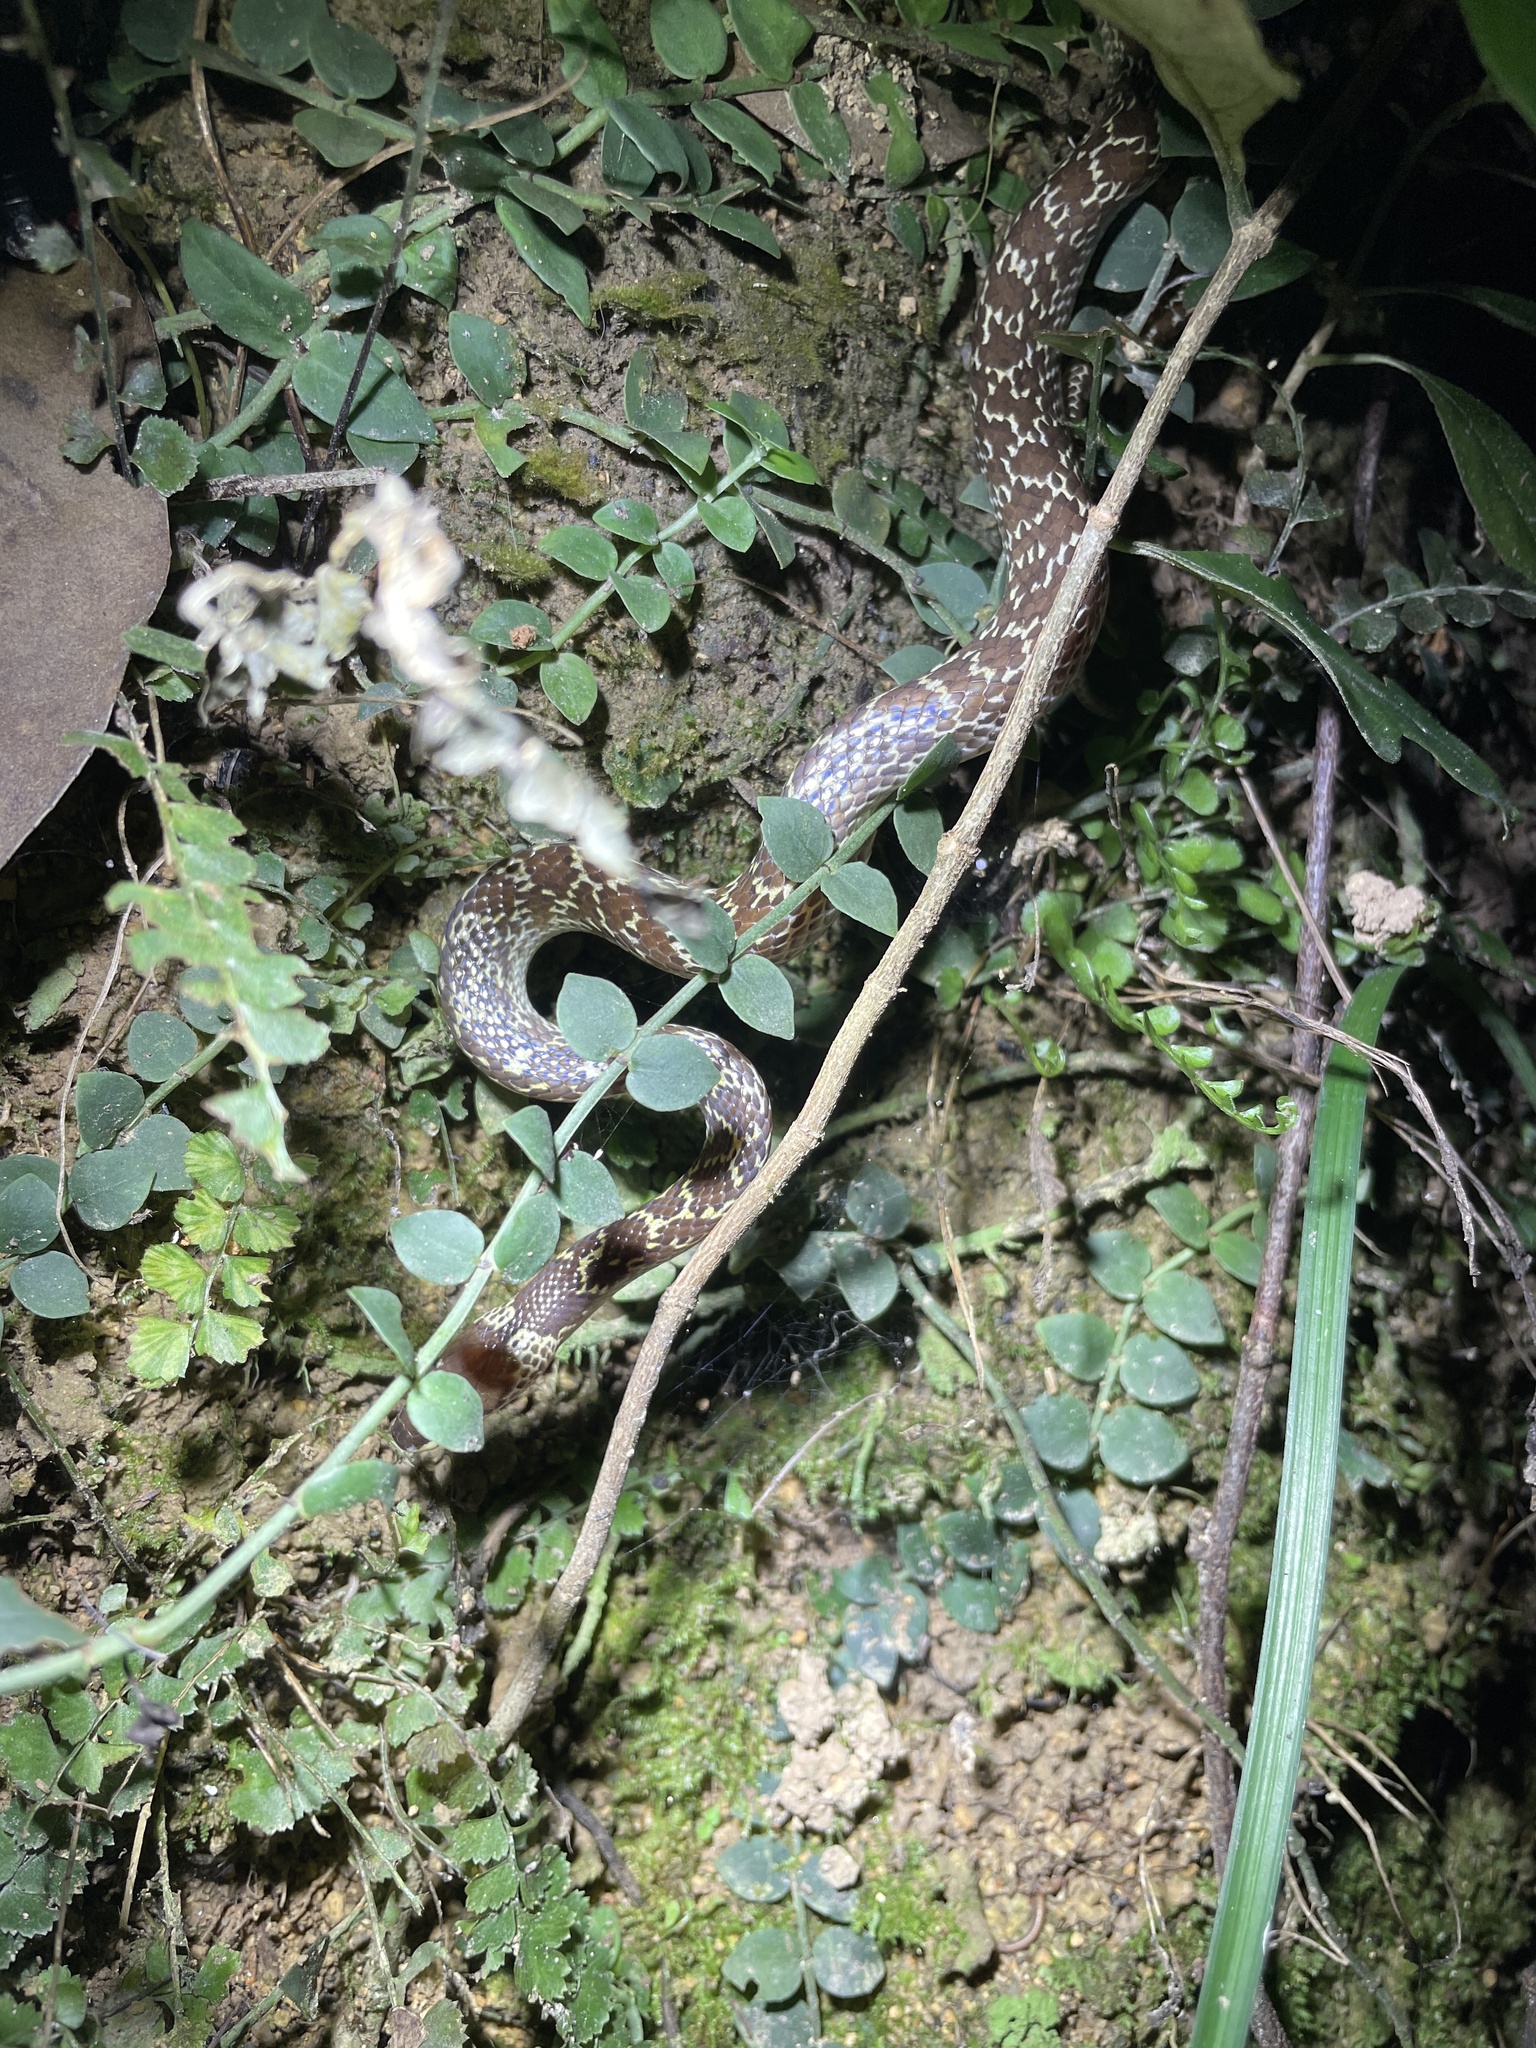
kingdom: Animalia
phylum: Chordata
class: Squamata
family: Colubridae
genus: Lycodon
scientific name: Lycodon capucinus
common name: Common wold snake/house snake
